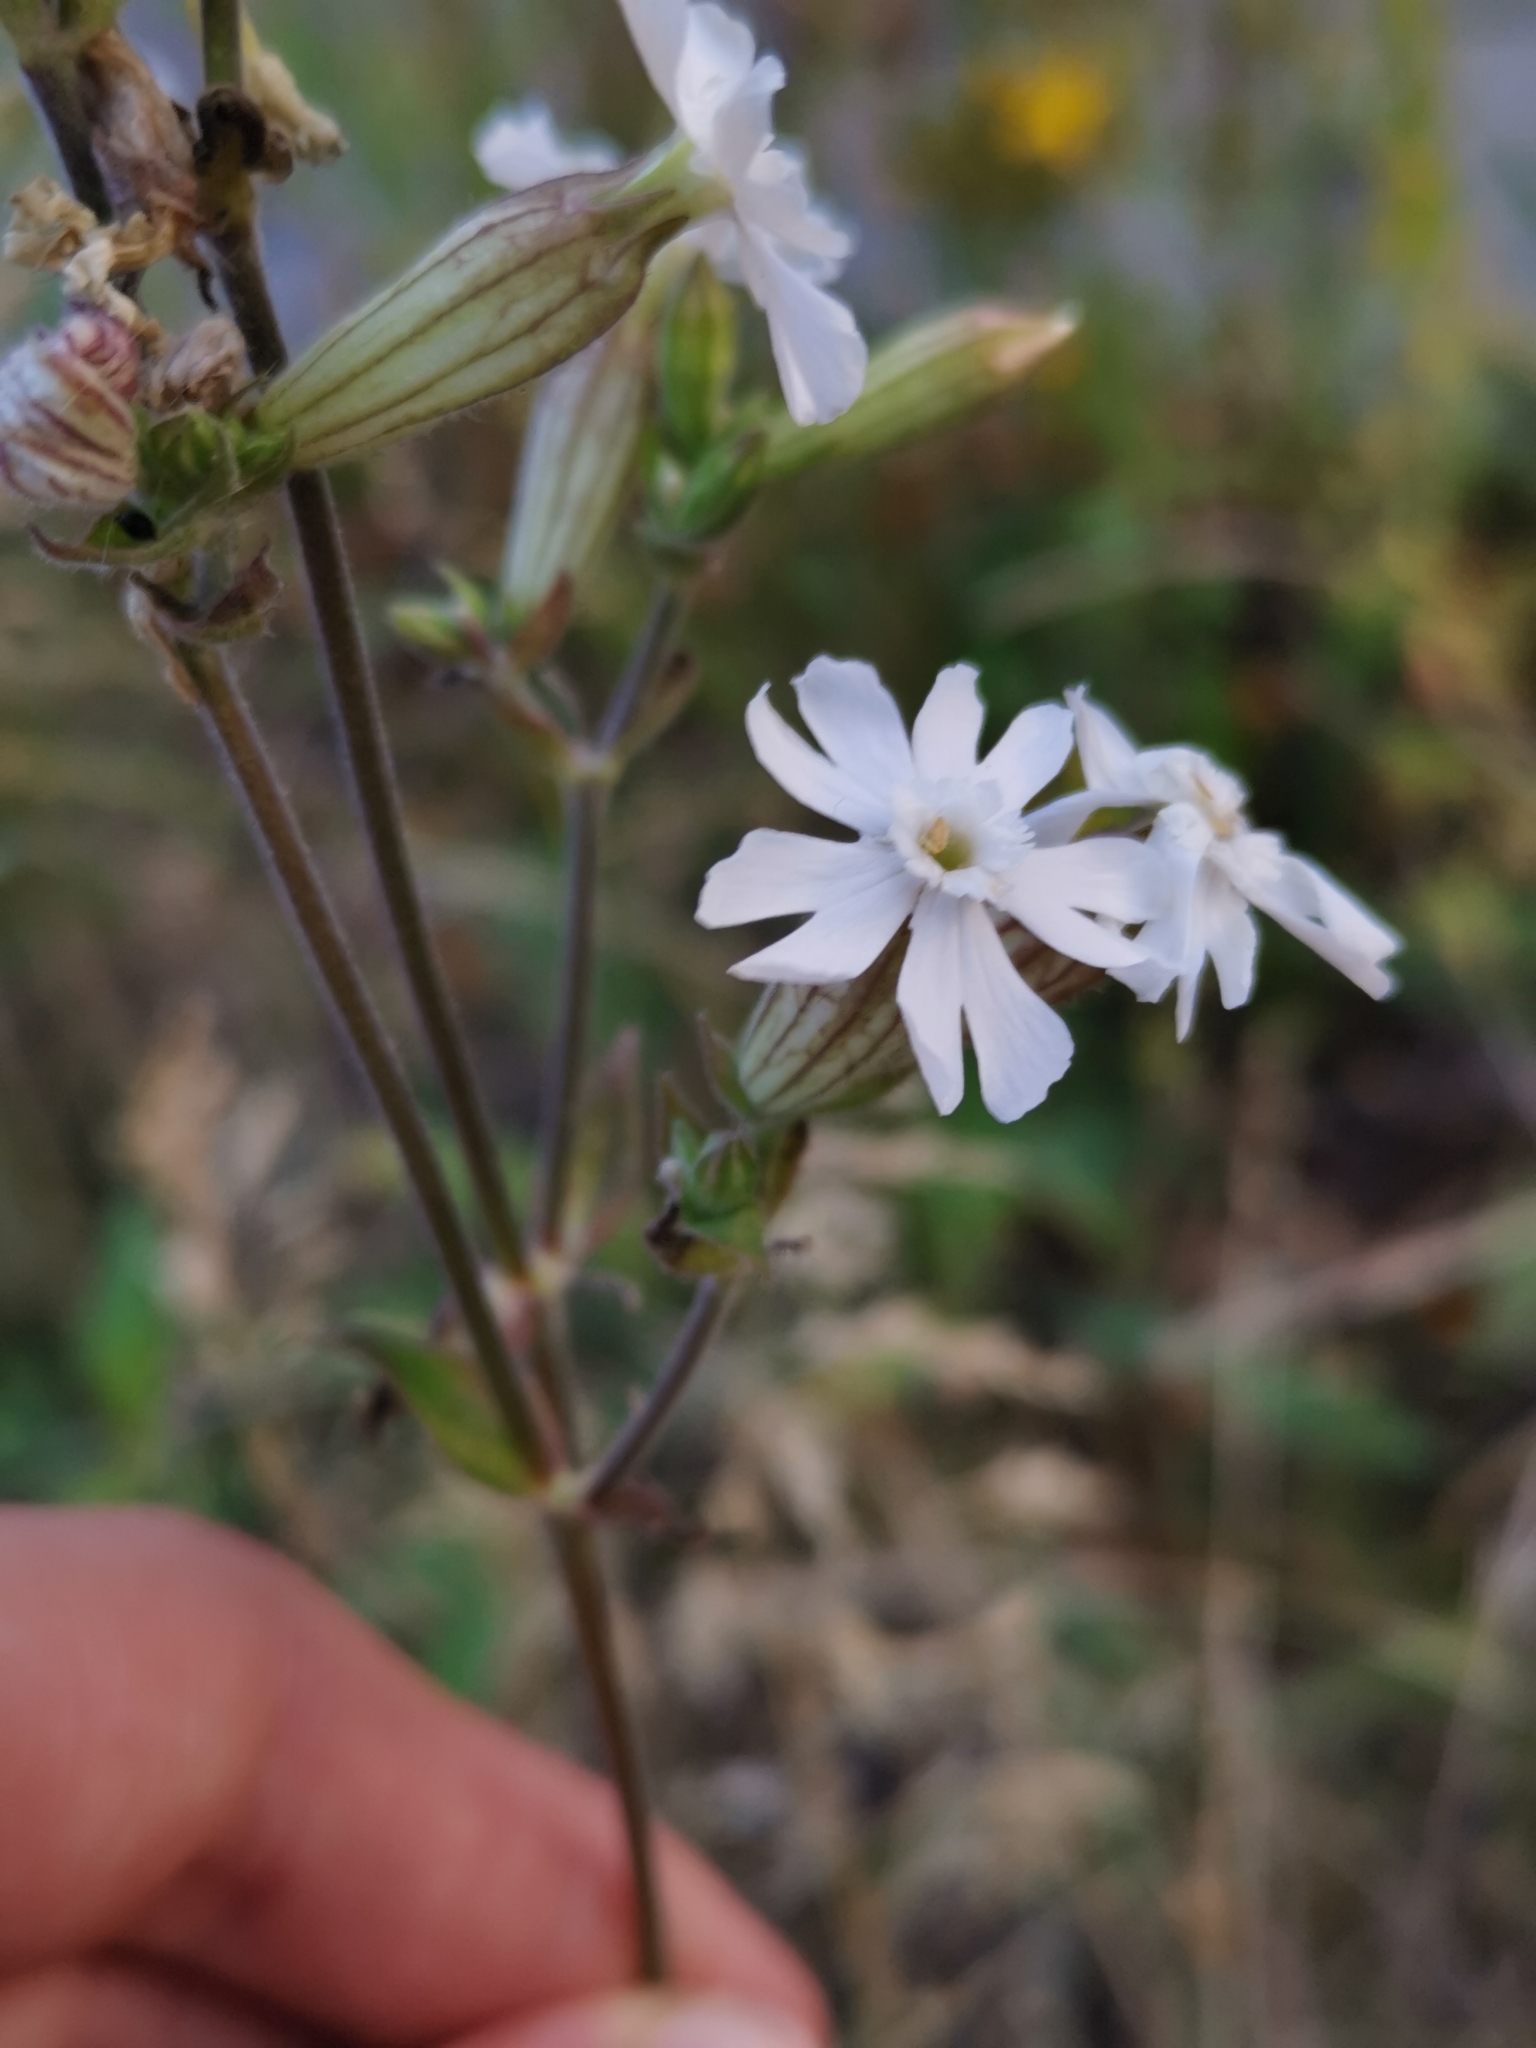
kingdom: Plantae
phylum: Tracheophyta
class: Magnoliopsida
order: Caryophyllales
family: Caryophyllaceae
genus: Silene
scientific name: Silene latifolia
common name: White campion
